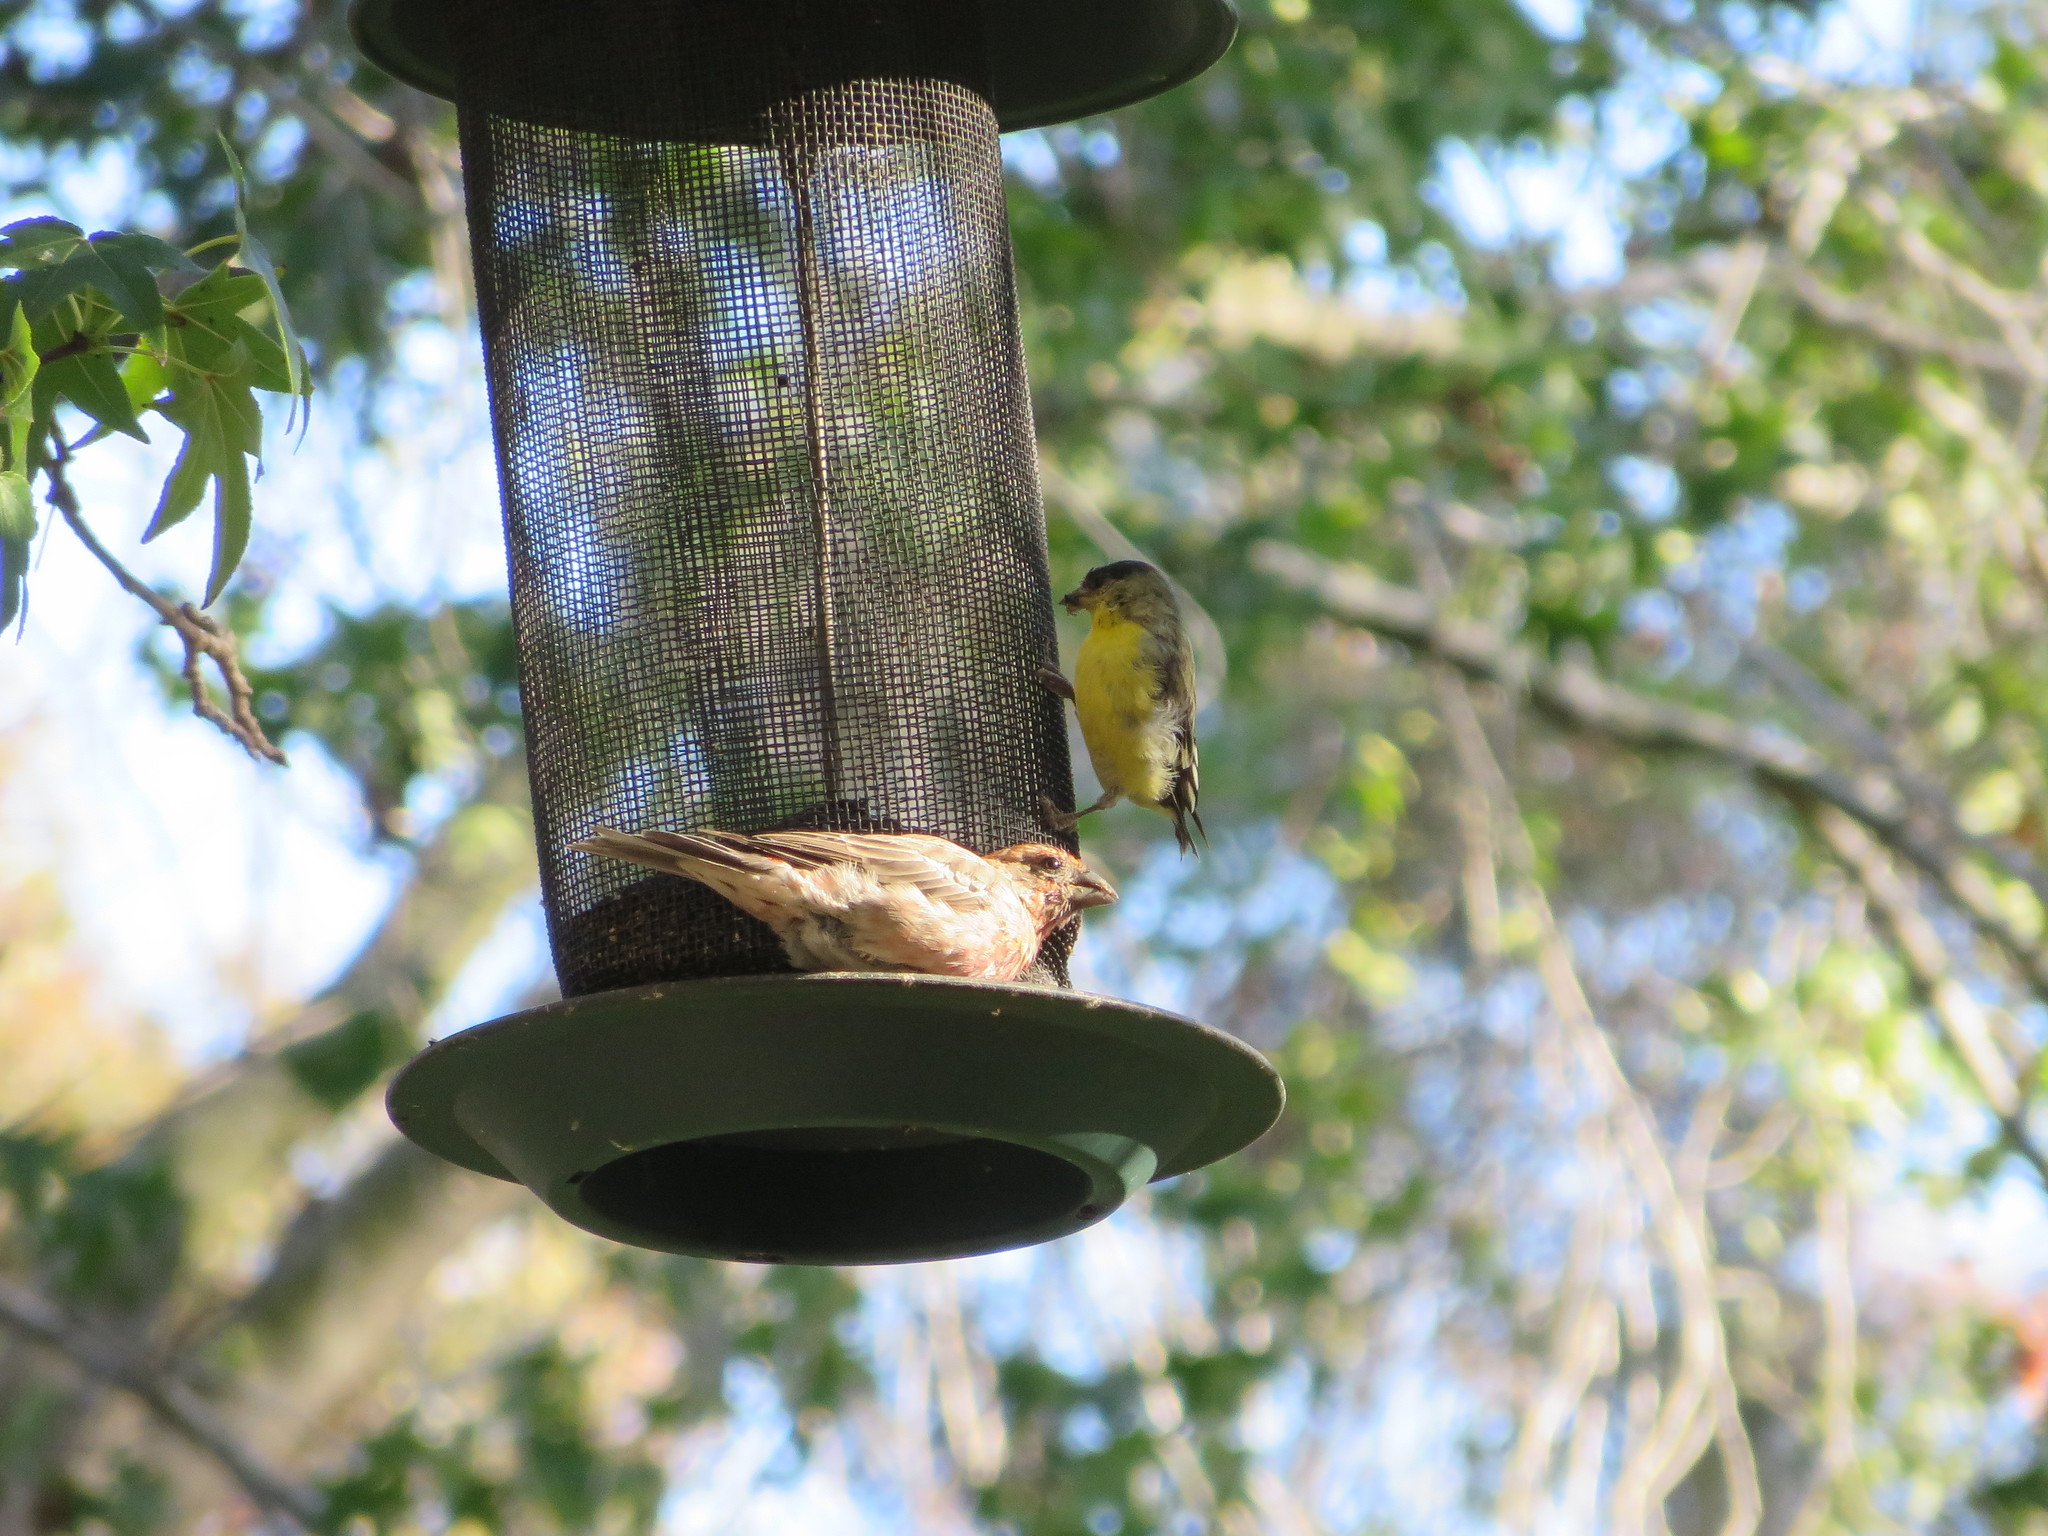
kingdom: Animalia
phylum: Chordata
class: Aves
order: Passeriformes
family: Fringillidae
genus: Spinus
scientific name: Spinus psaltria
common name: Lesser goldfinch
